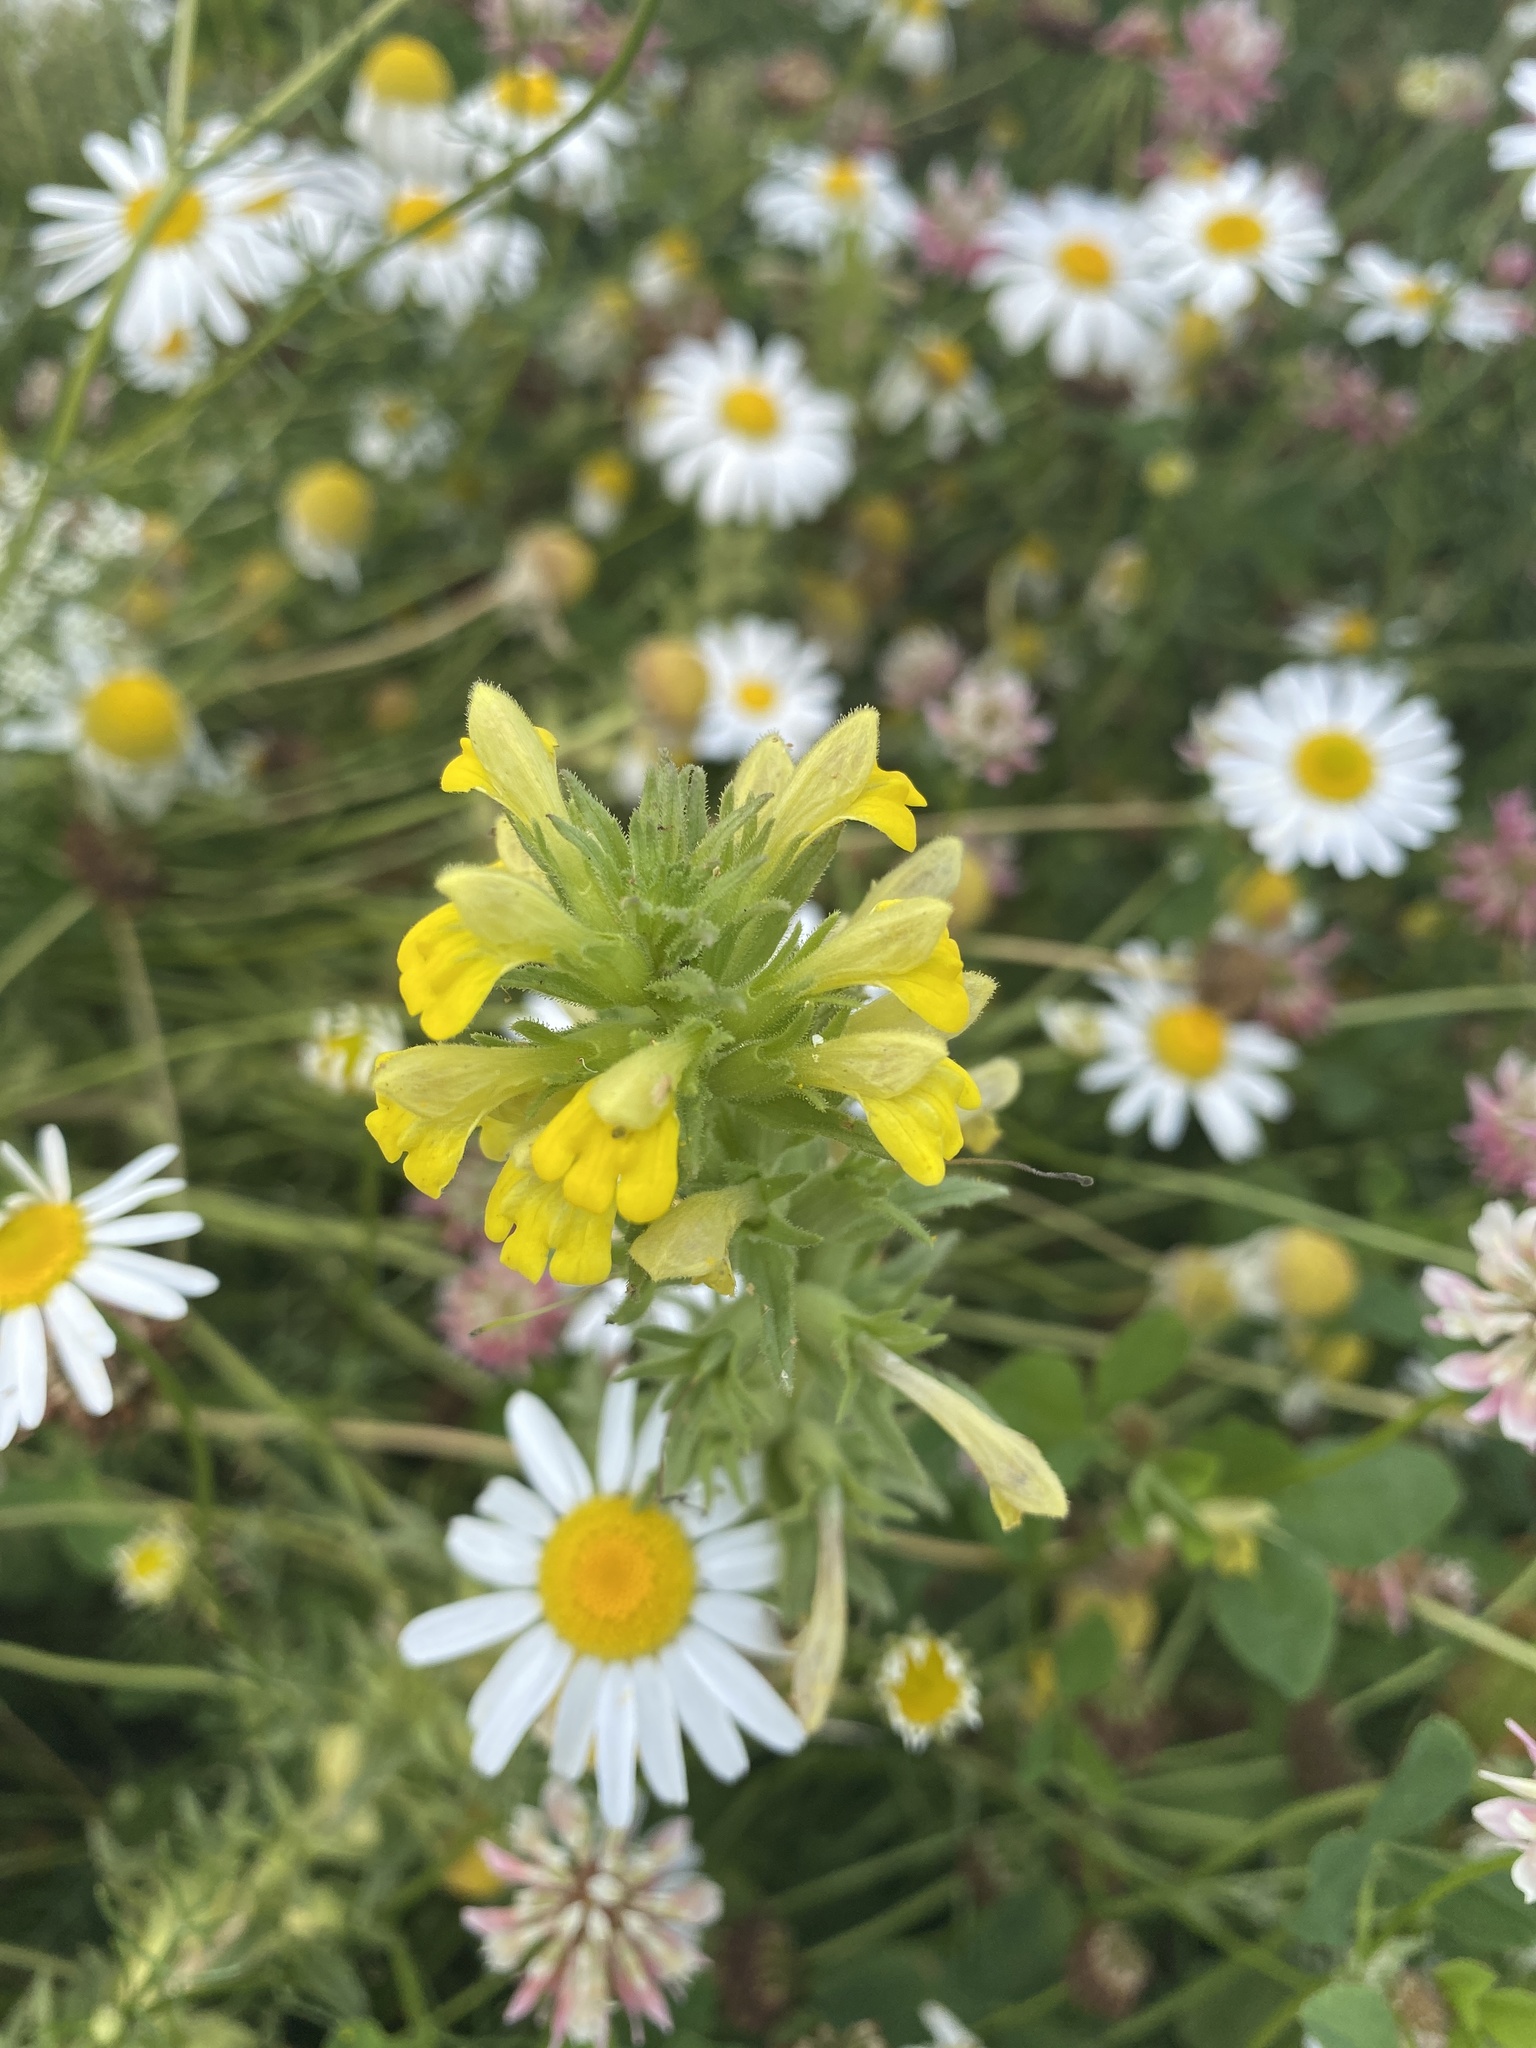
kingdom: Plantae
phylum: Tracheophyta
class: Magnoliopsida
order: Lamiales
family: Orobanchaceae
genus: Bellardia
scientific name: Bellardia viscosa
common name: Sticky parentucellia
